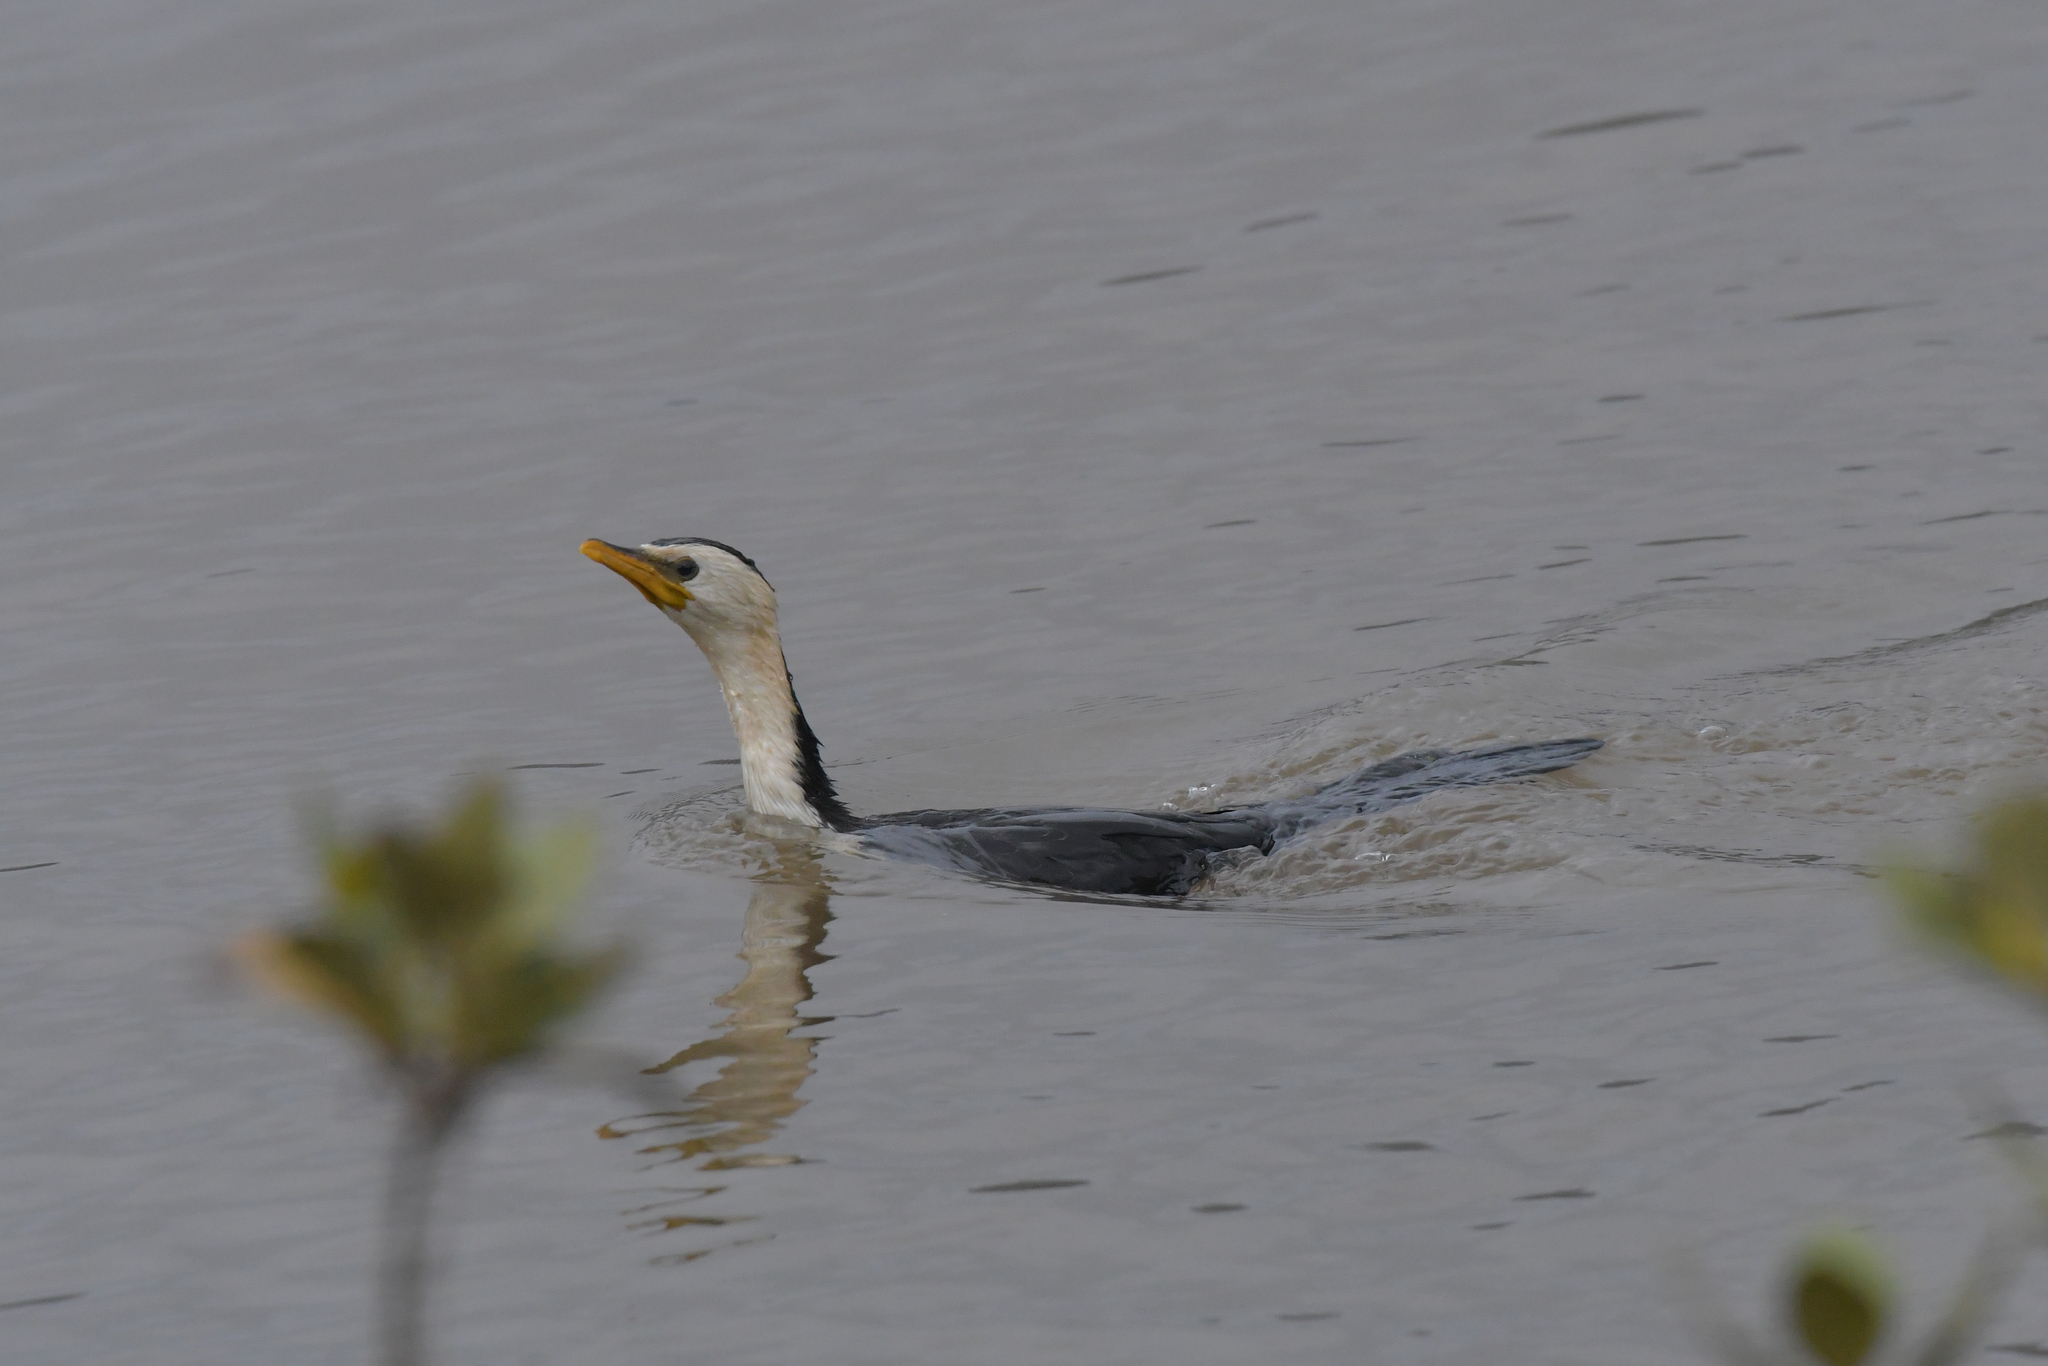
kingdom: Animalia
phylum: Chordata
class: Aves
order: Suliformes
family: Phalacrocoracidae
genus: Microcarbo
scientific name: Microcarbo melanoleucos
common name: Little pied cormorant
